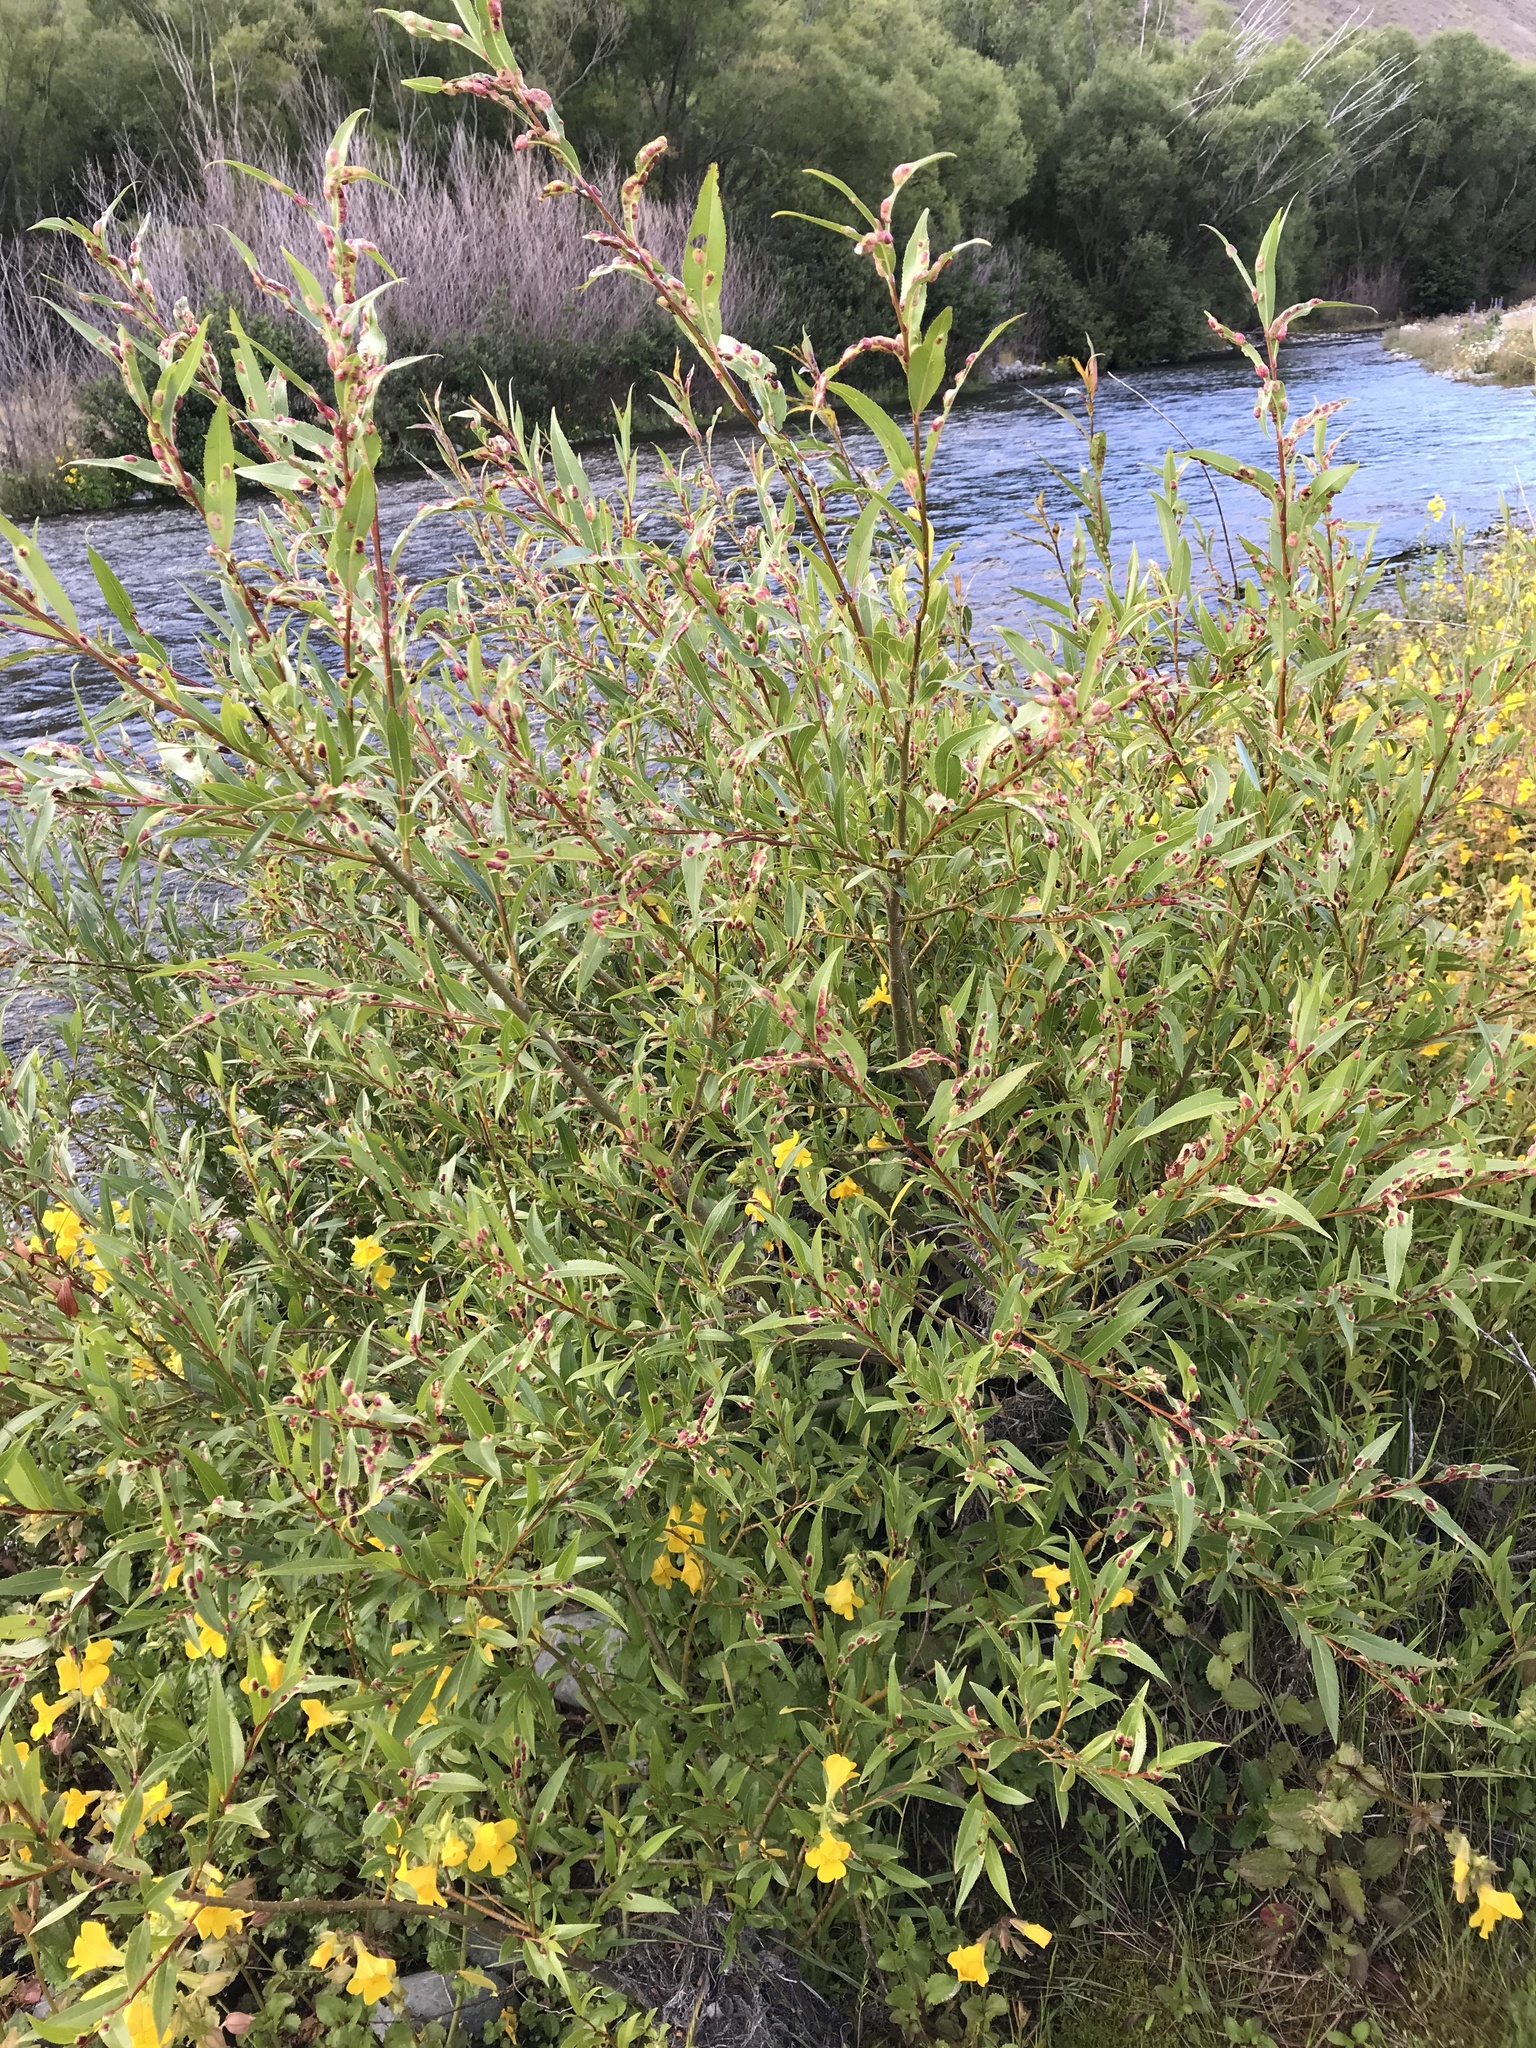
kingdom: Plantae
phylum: Tracheophyta
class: Magnoliopsida
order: Malpighiales
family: Salicaceae
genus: Salix
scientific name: Salix fragilis
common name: Crack willow
